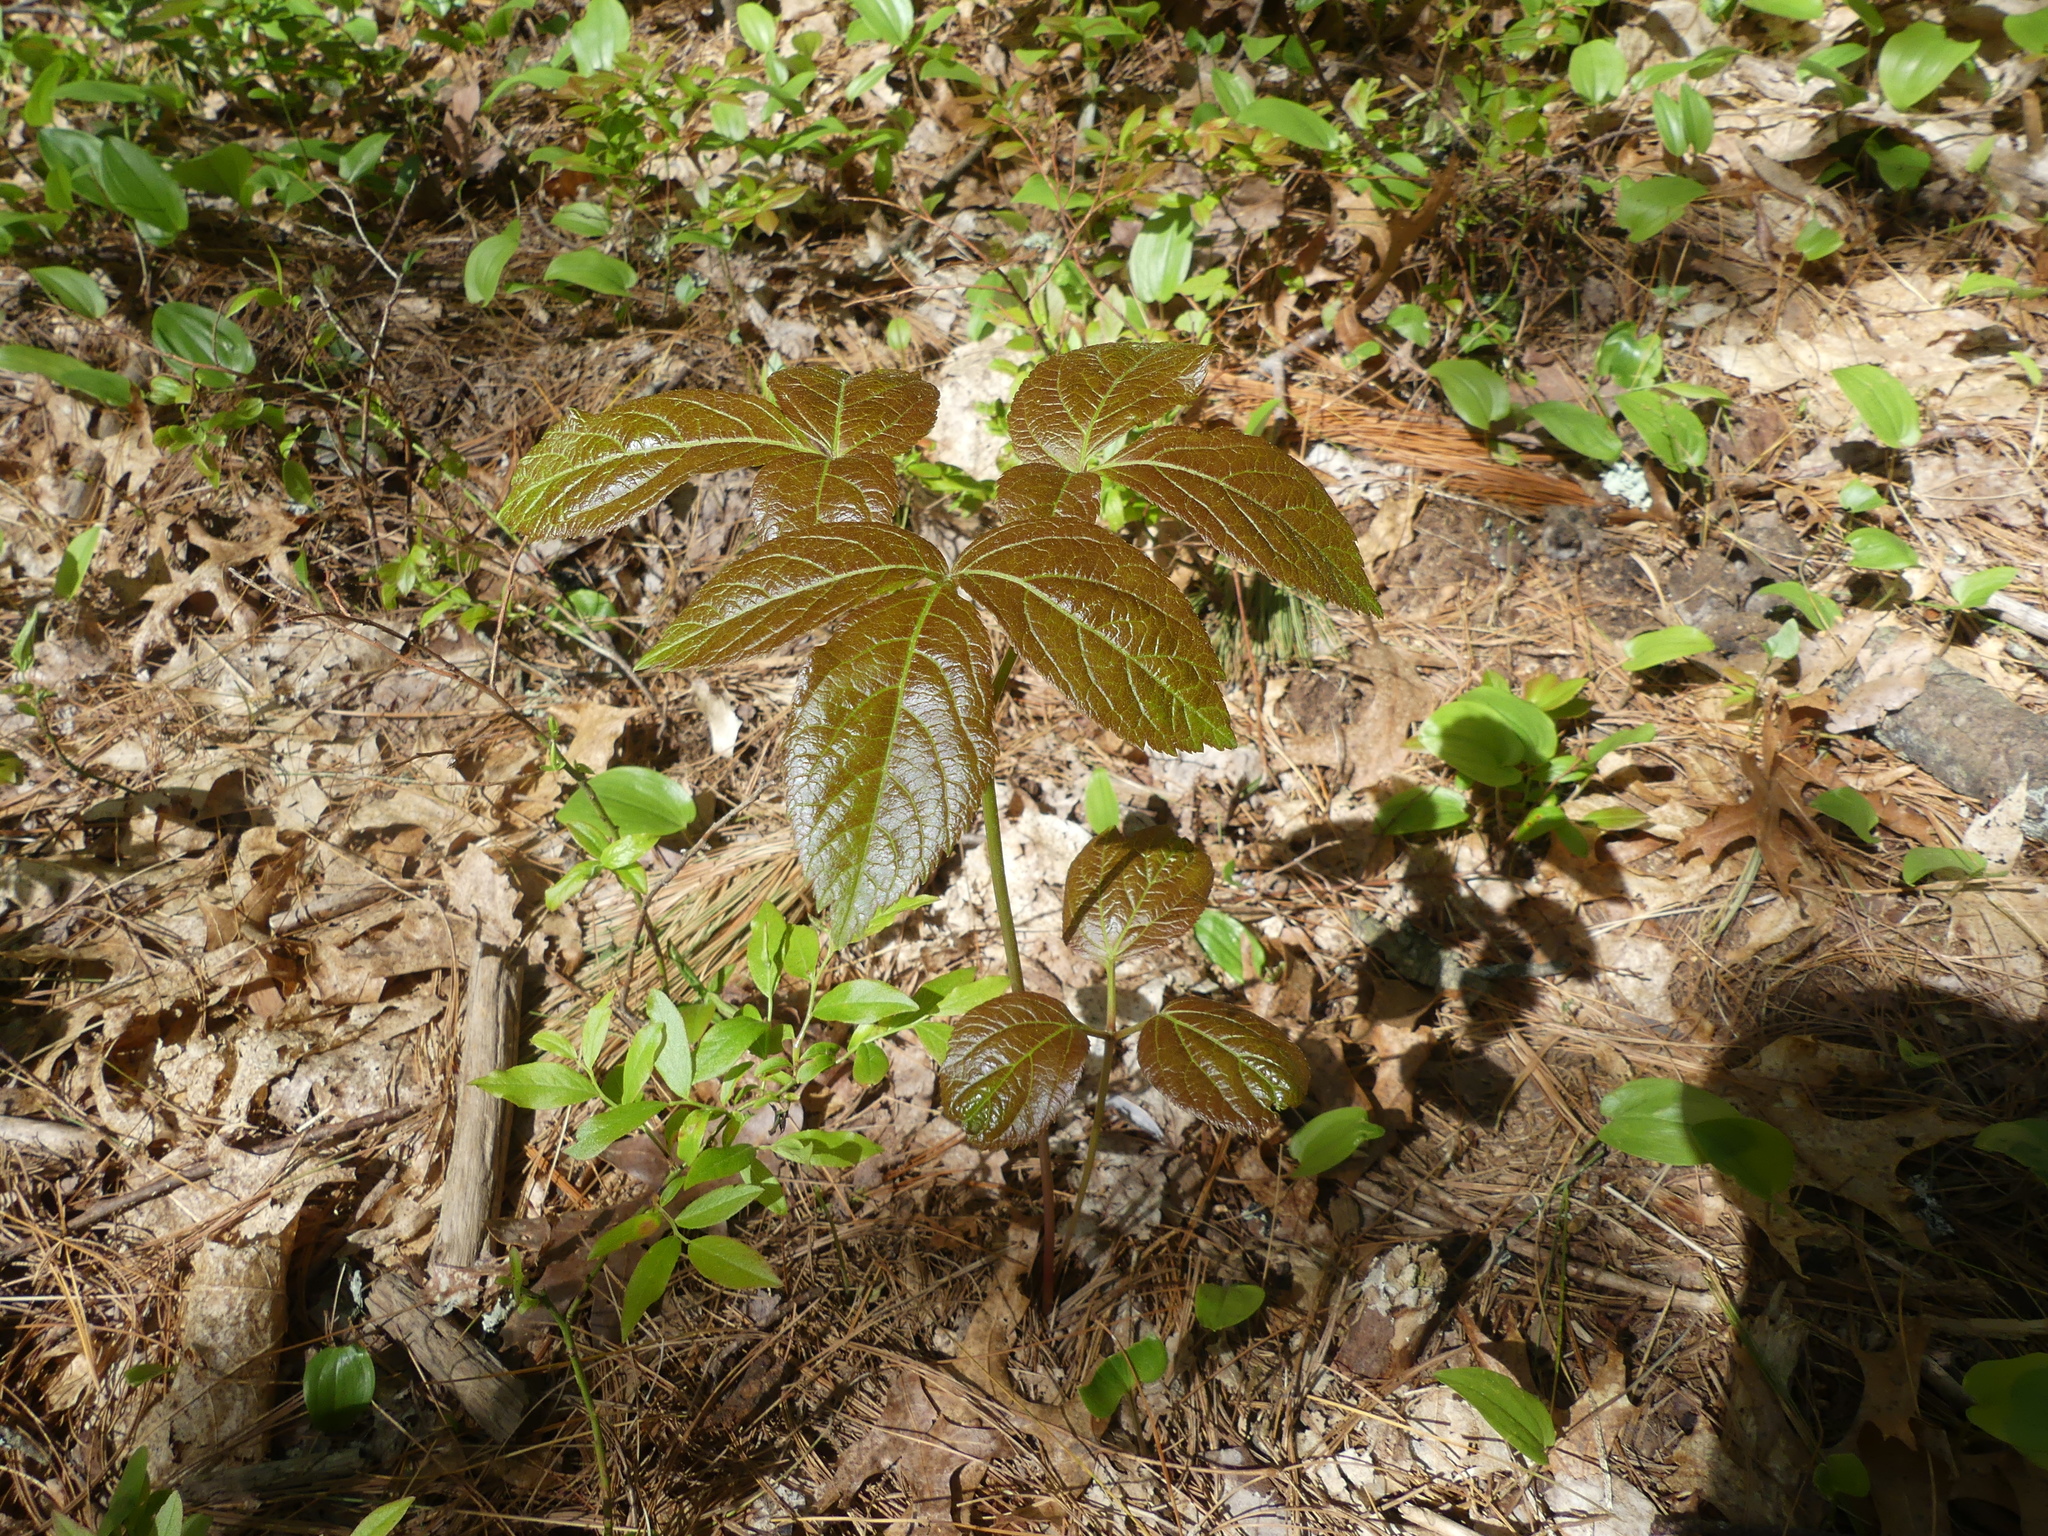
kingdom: Plantae
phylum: Tracheophyta
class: Magnoliopsida
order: Apiales
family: Araliaceae
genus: Aralia
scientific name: Aralia nudicaulis
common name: Wild sarsaparilla
